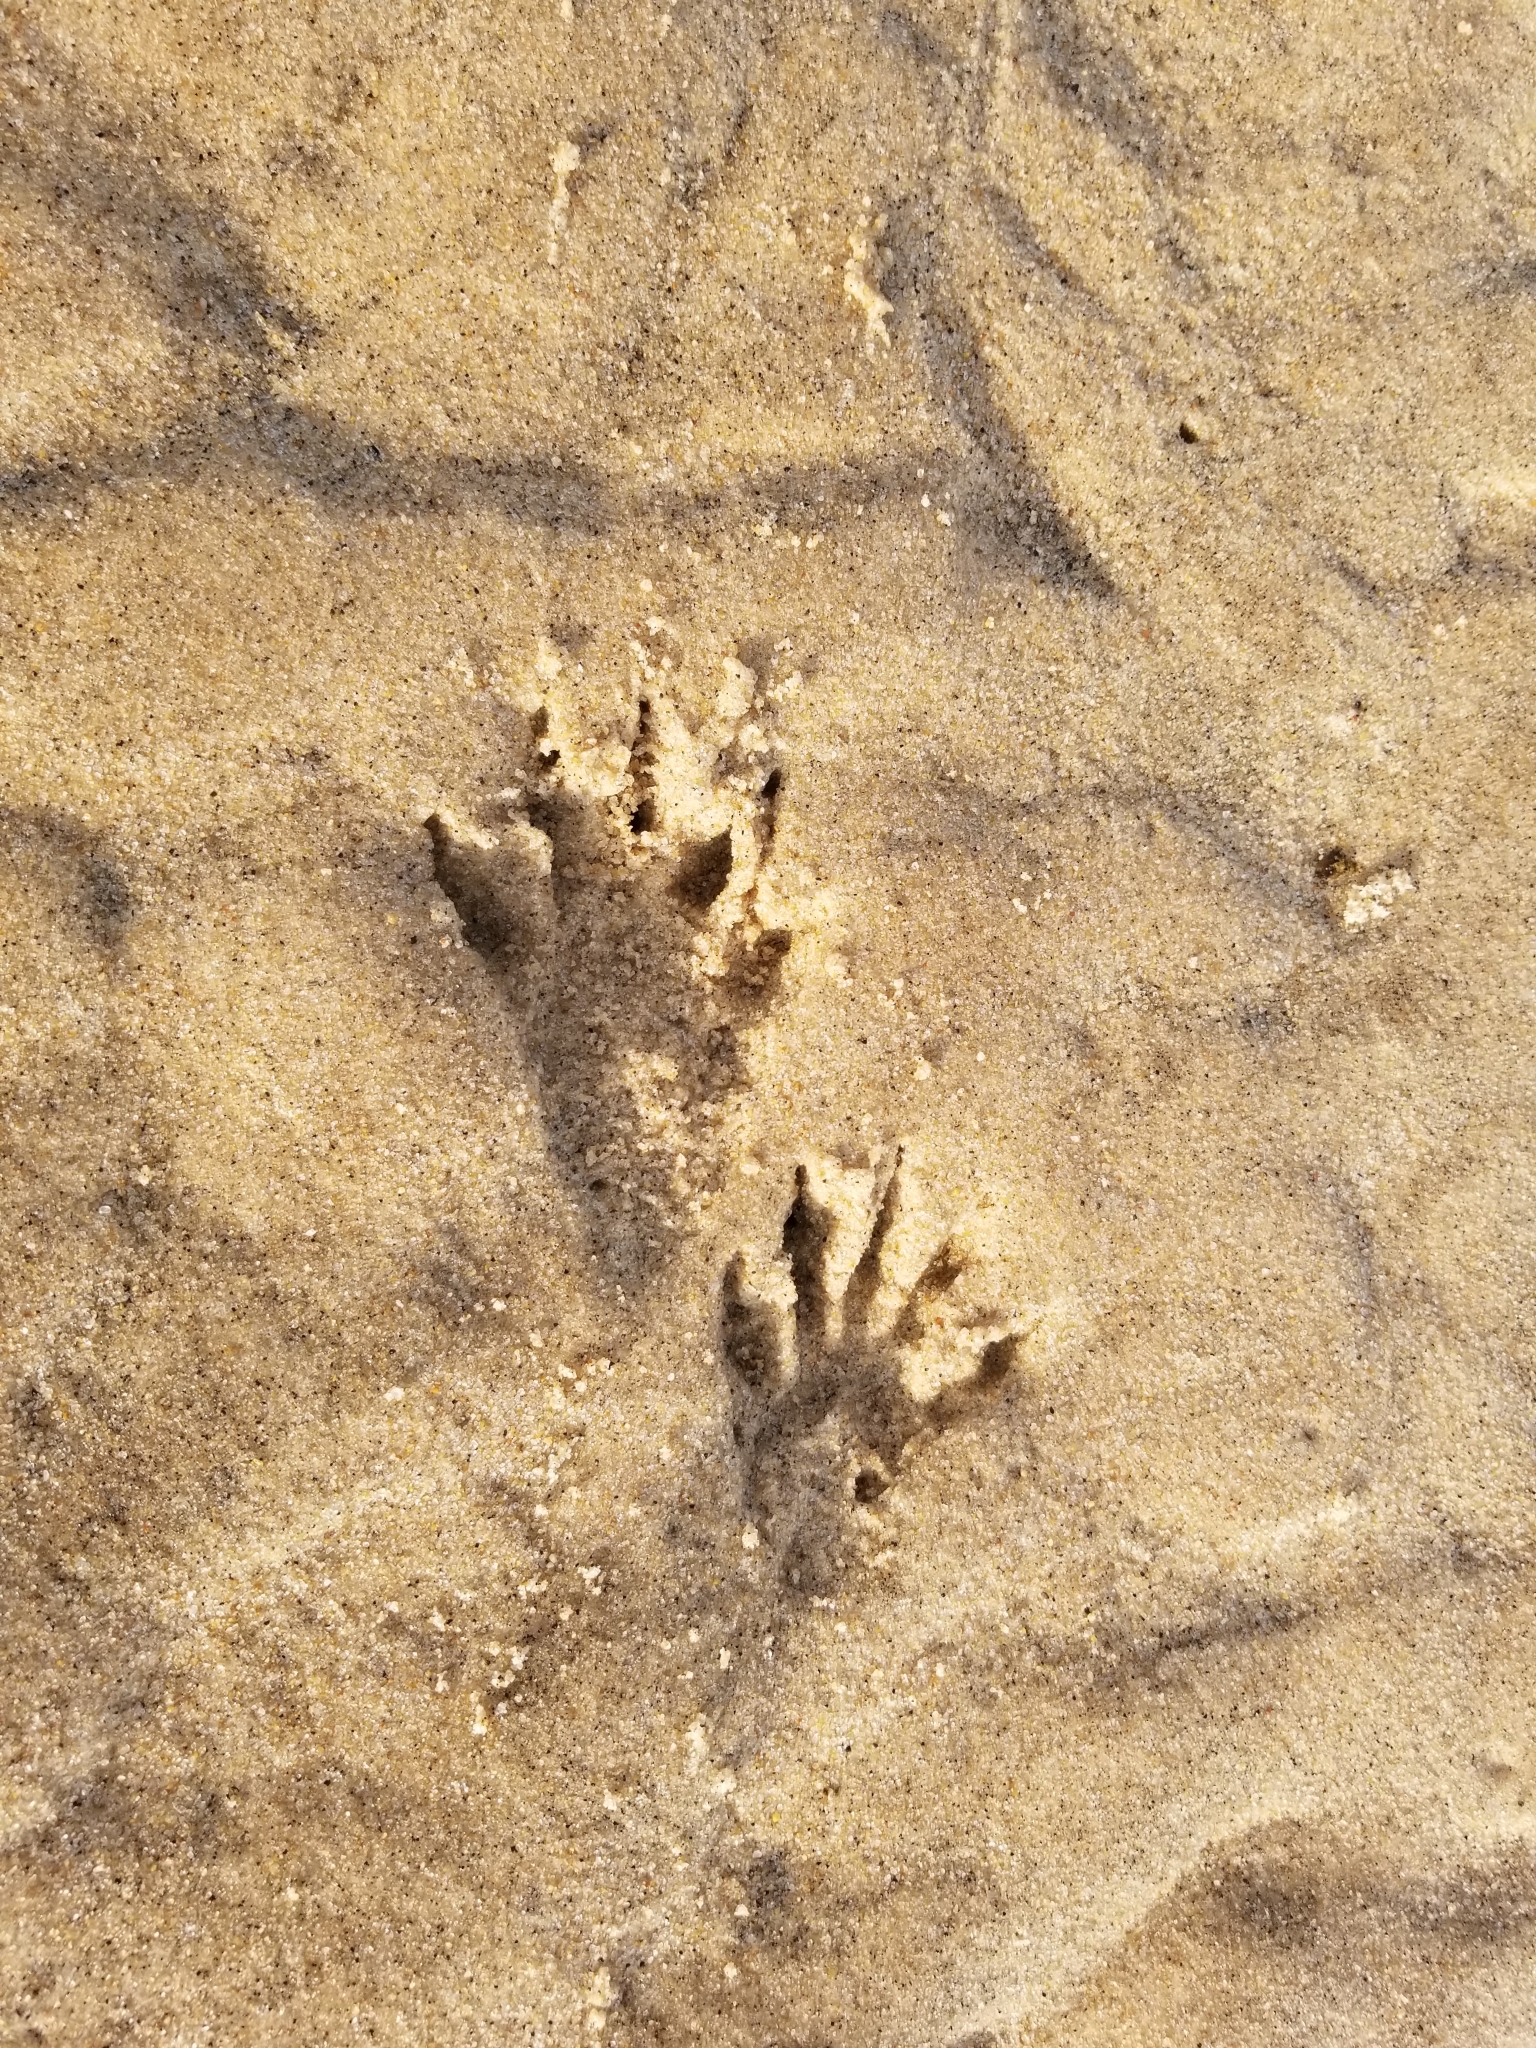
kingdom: Animalia
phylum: Chordata
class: Mammalia
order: Carnivora
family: Procyonidae
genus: Procyon
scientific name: Procyon lotor
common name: Raccoon
